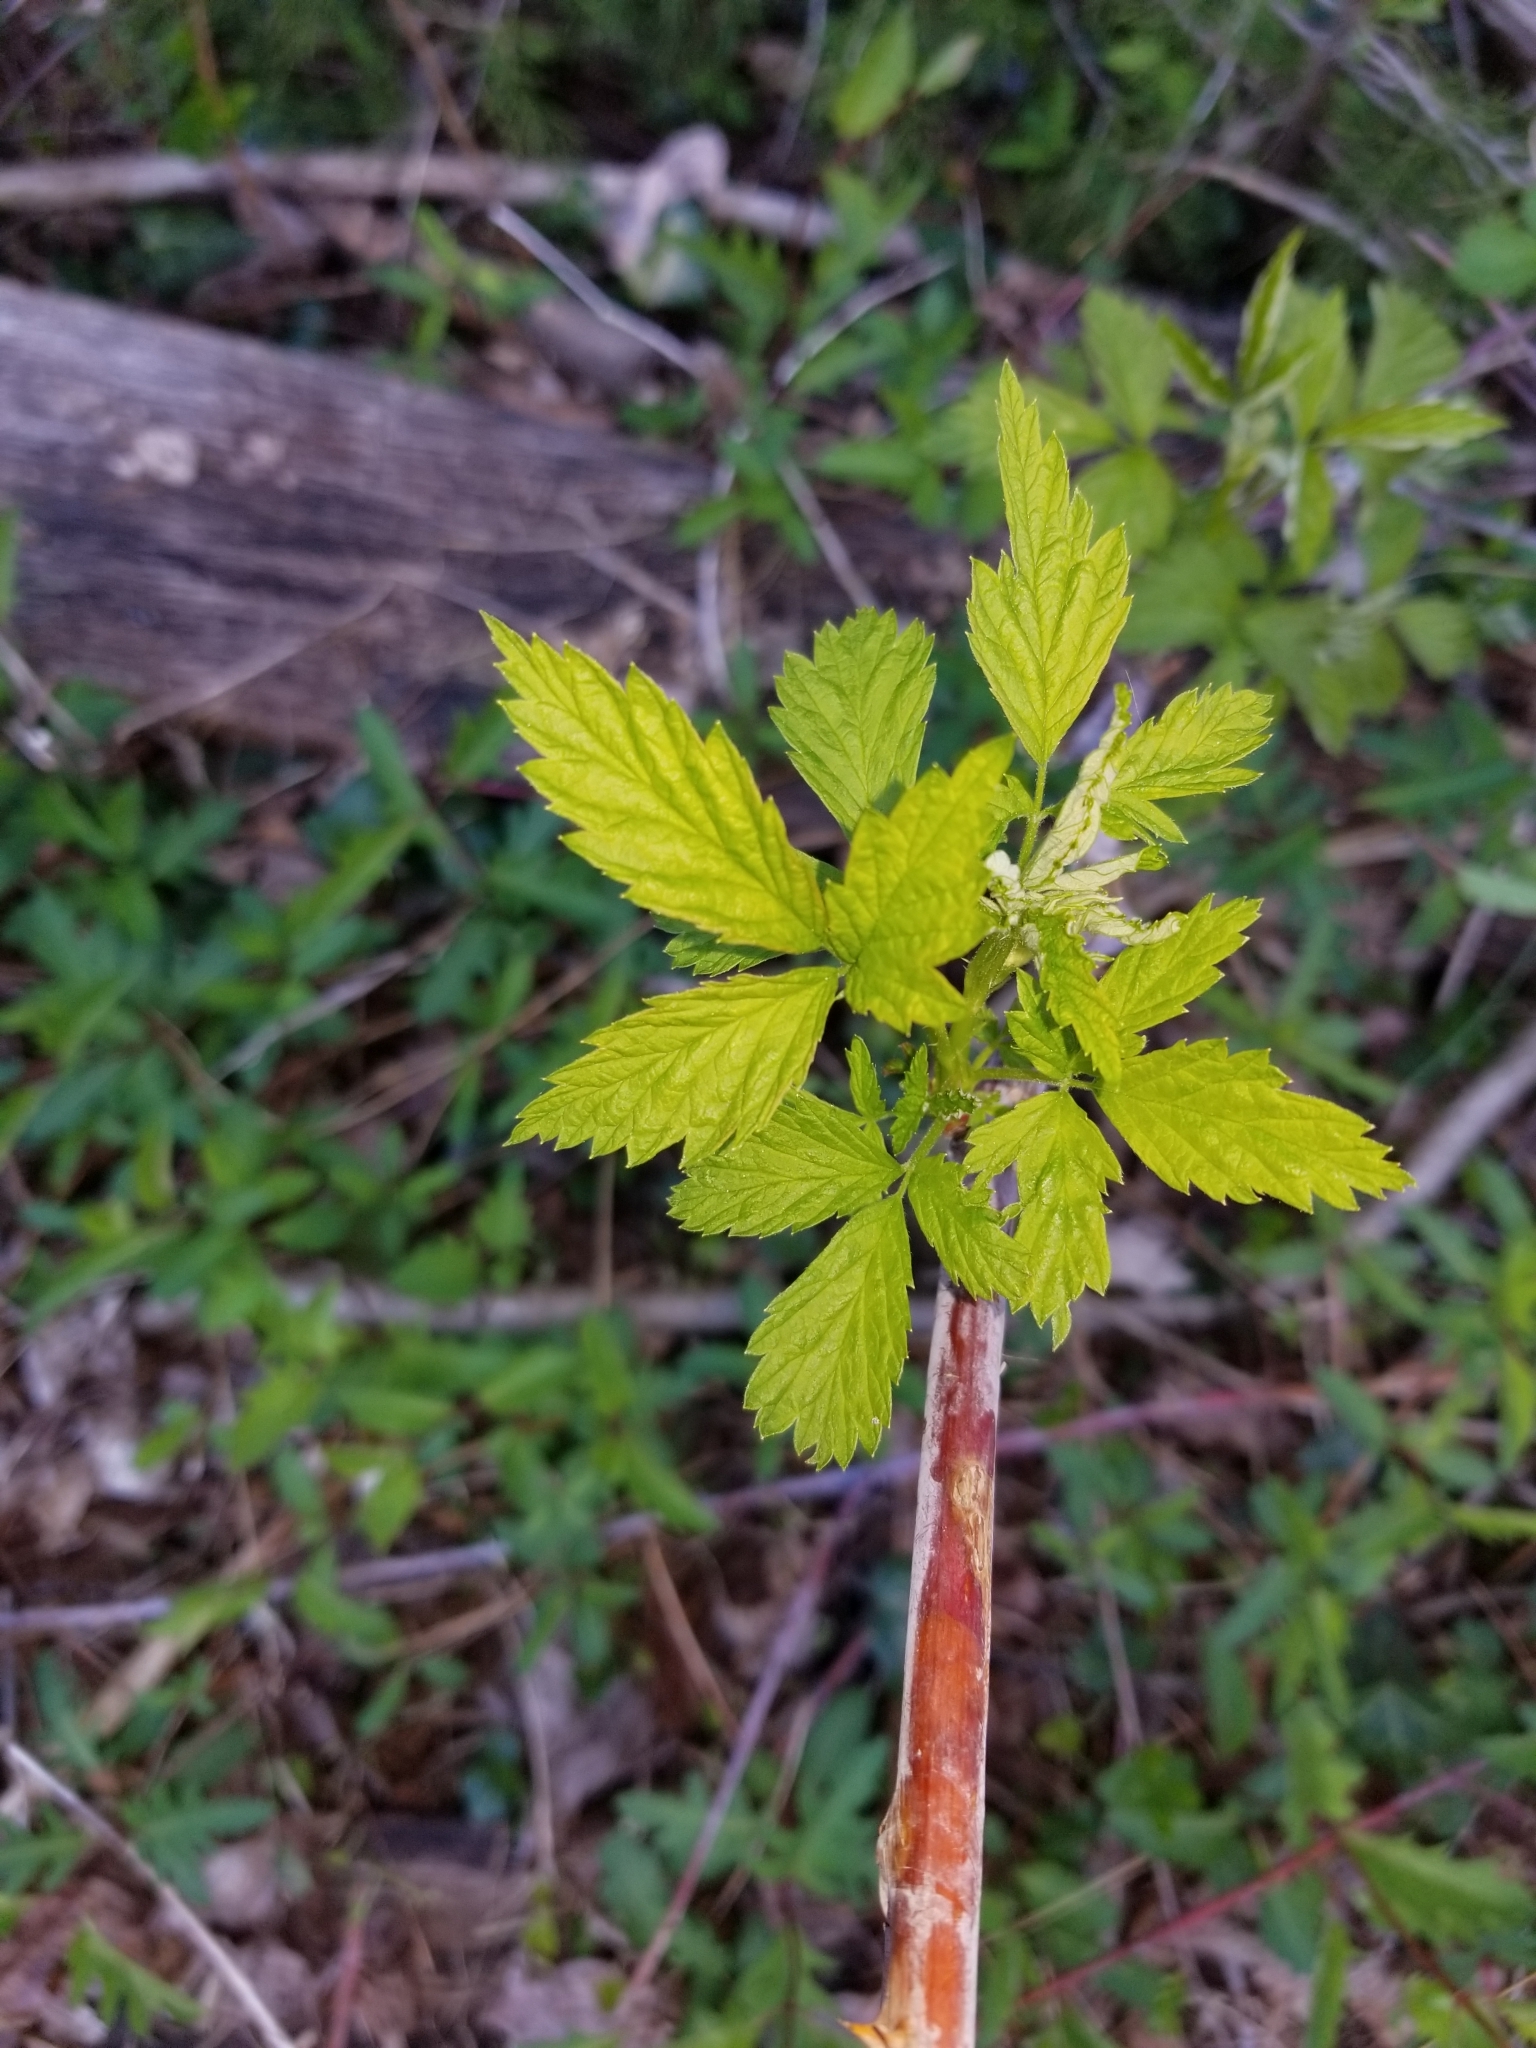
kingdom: Plantae
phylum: Tracheophyta
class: Magnoliopsida
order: Rosales
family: Rosaceae
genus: Rubus
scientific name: Rubus occidentalis
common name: Black raspberry
